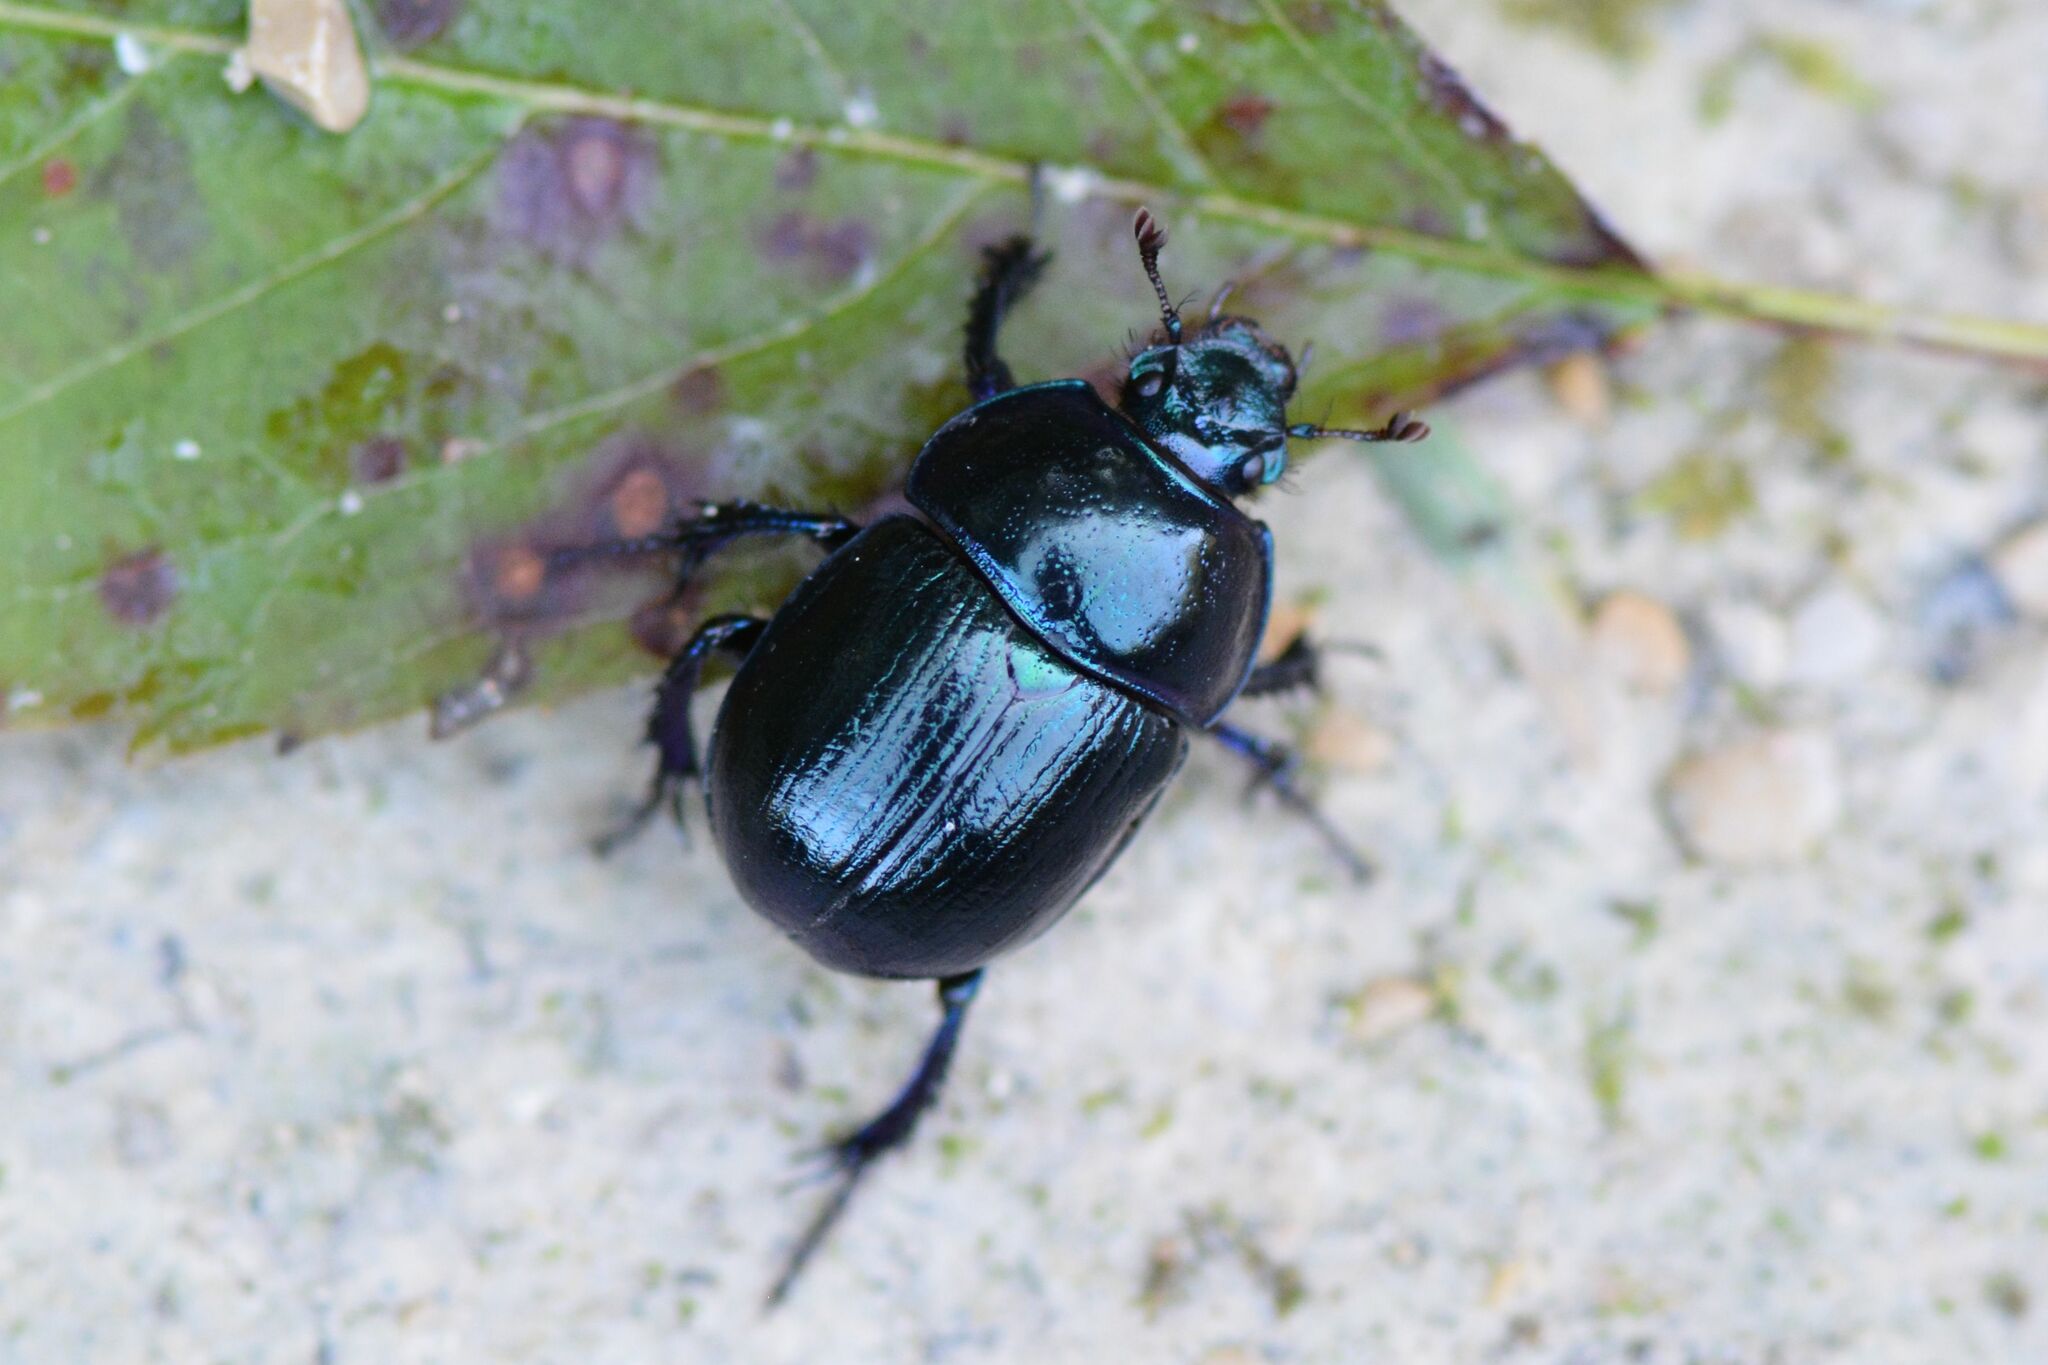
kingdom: Animalia
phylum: Arthropoda
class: Insecta
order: Coleoptera
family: Geotrupidae
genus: Anoplotrupes
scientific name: Anoplotrupes stercorosus
